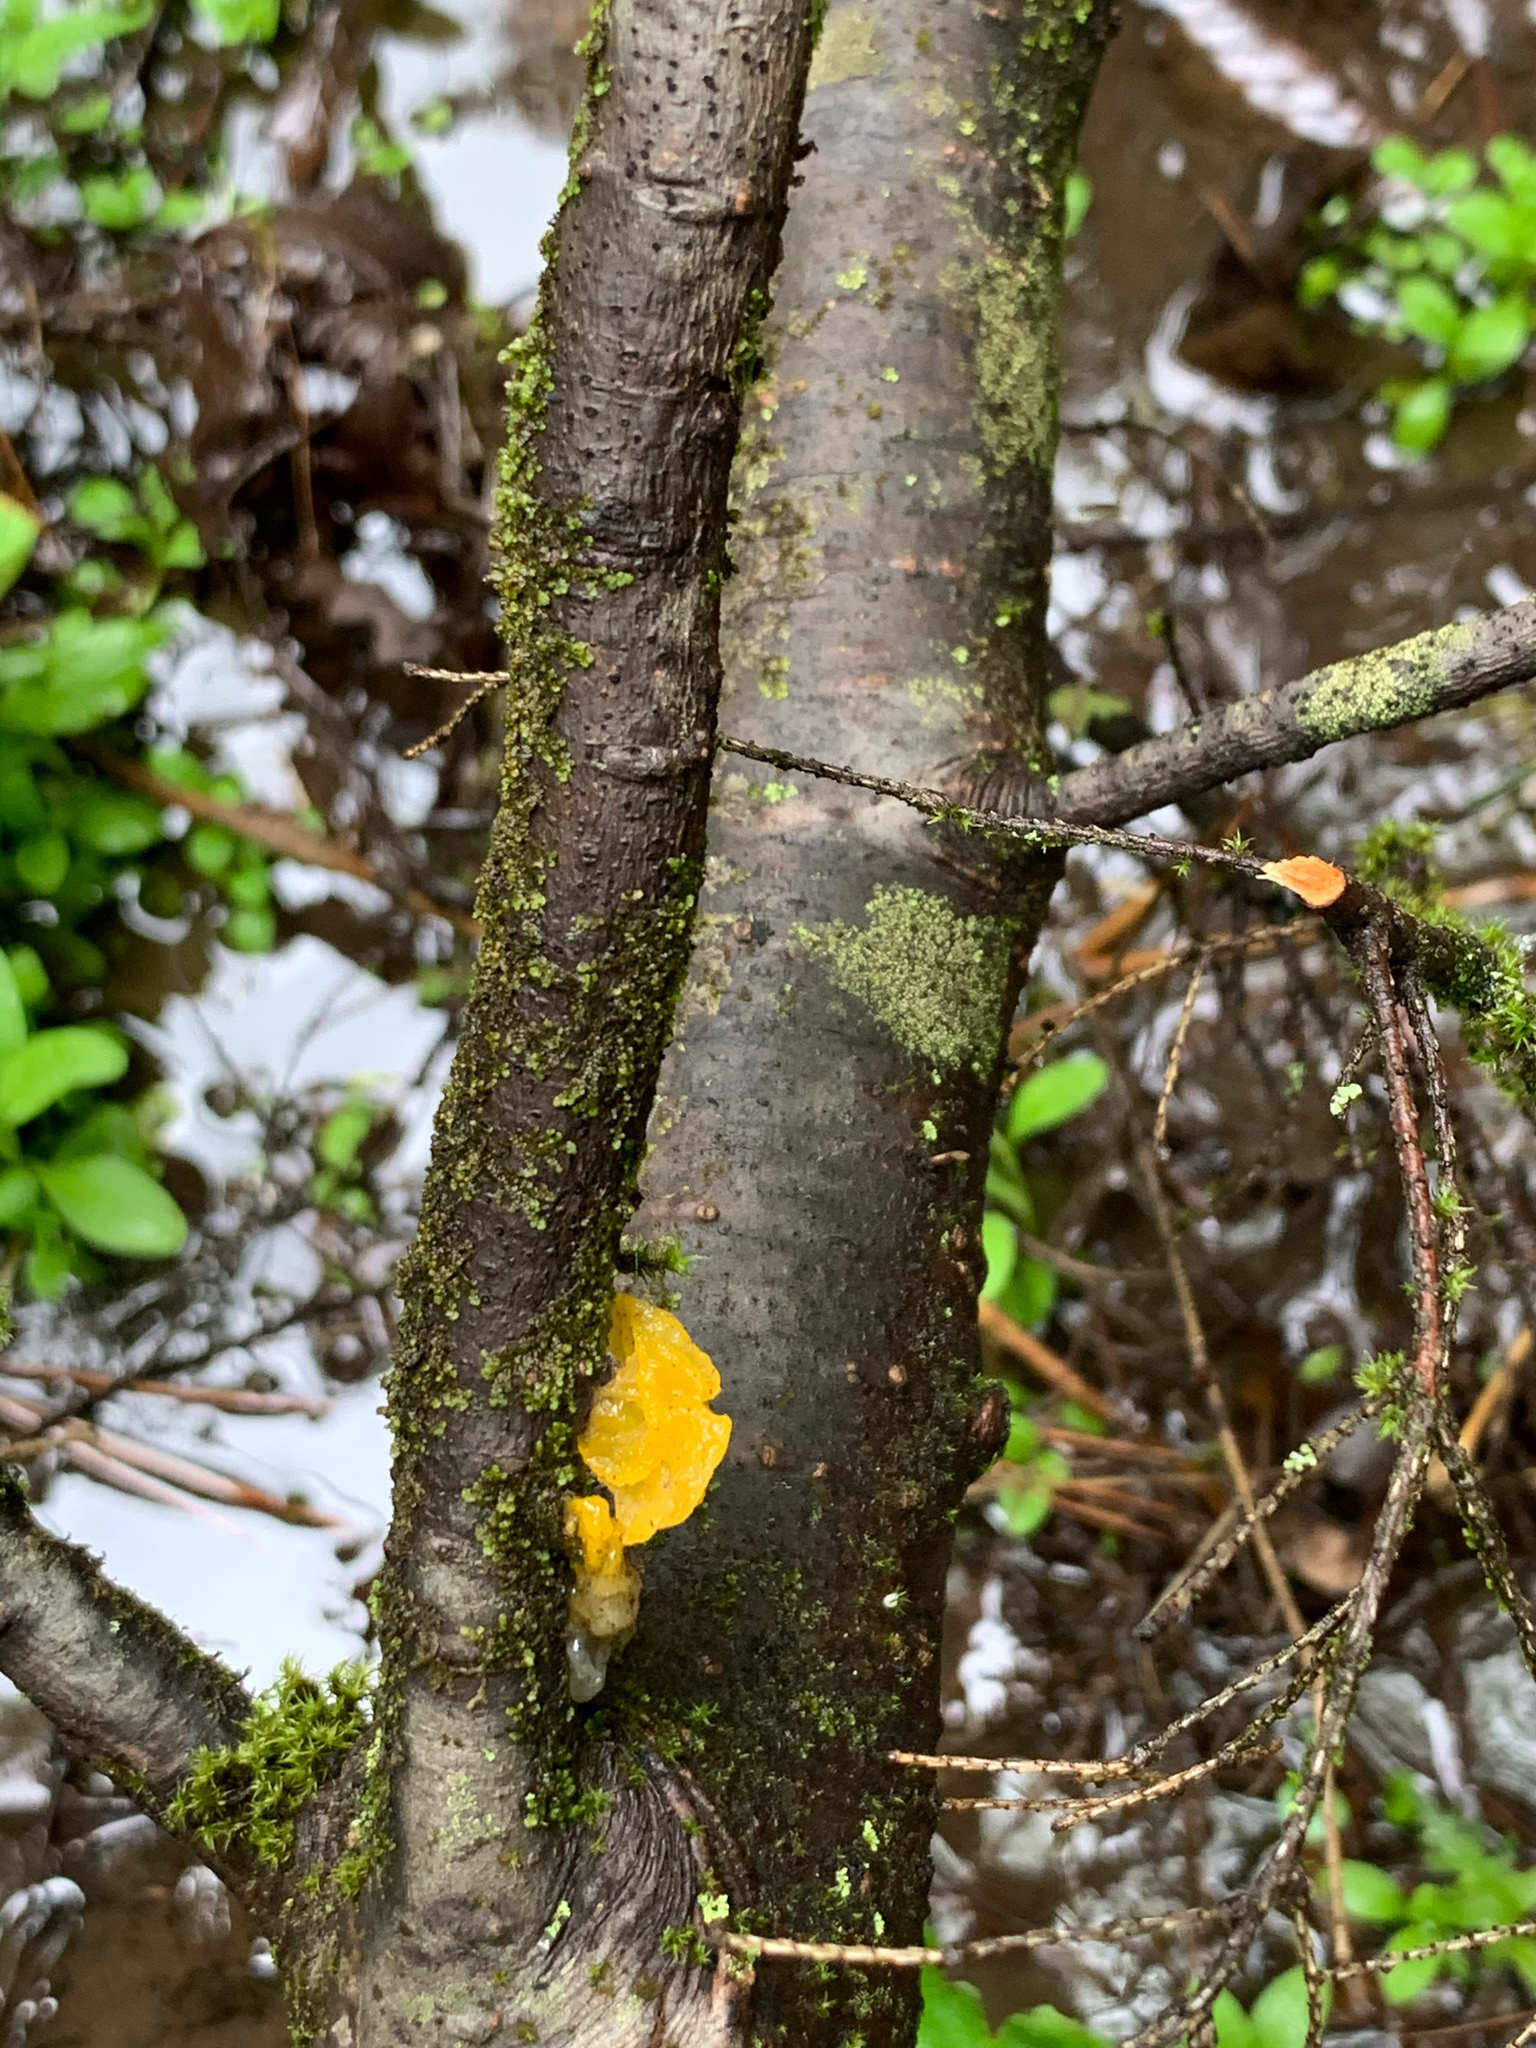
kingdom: Fungi
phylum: Basidiomycota
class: Tremellomycetes
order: Tremellales
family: Tremellaceae
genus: Tremella
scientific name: Tremella mesenterica
